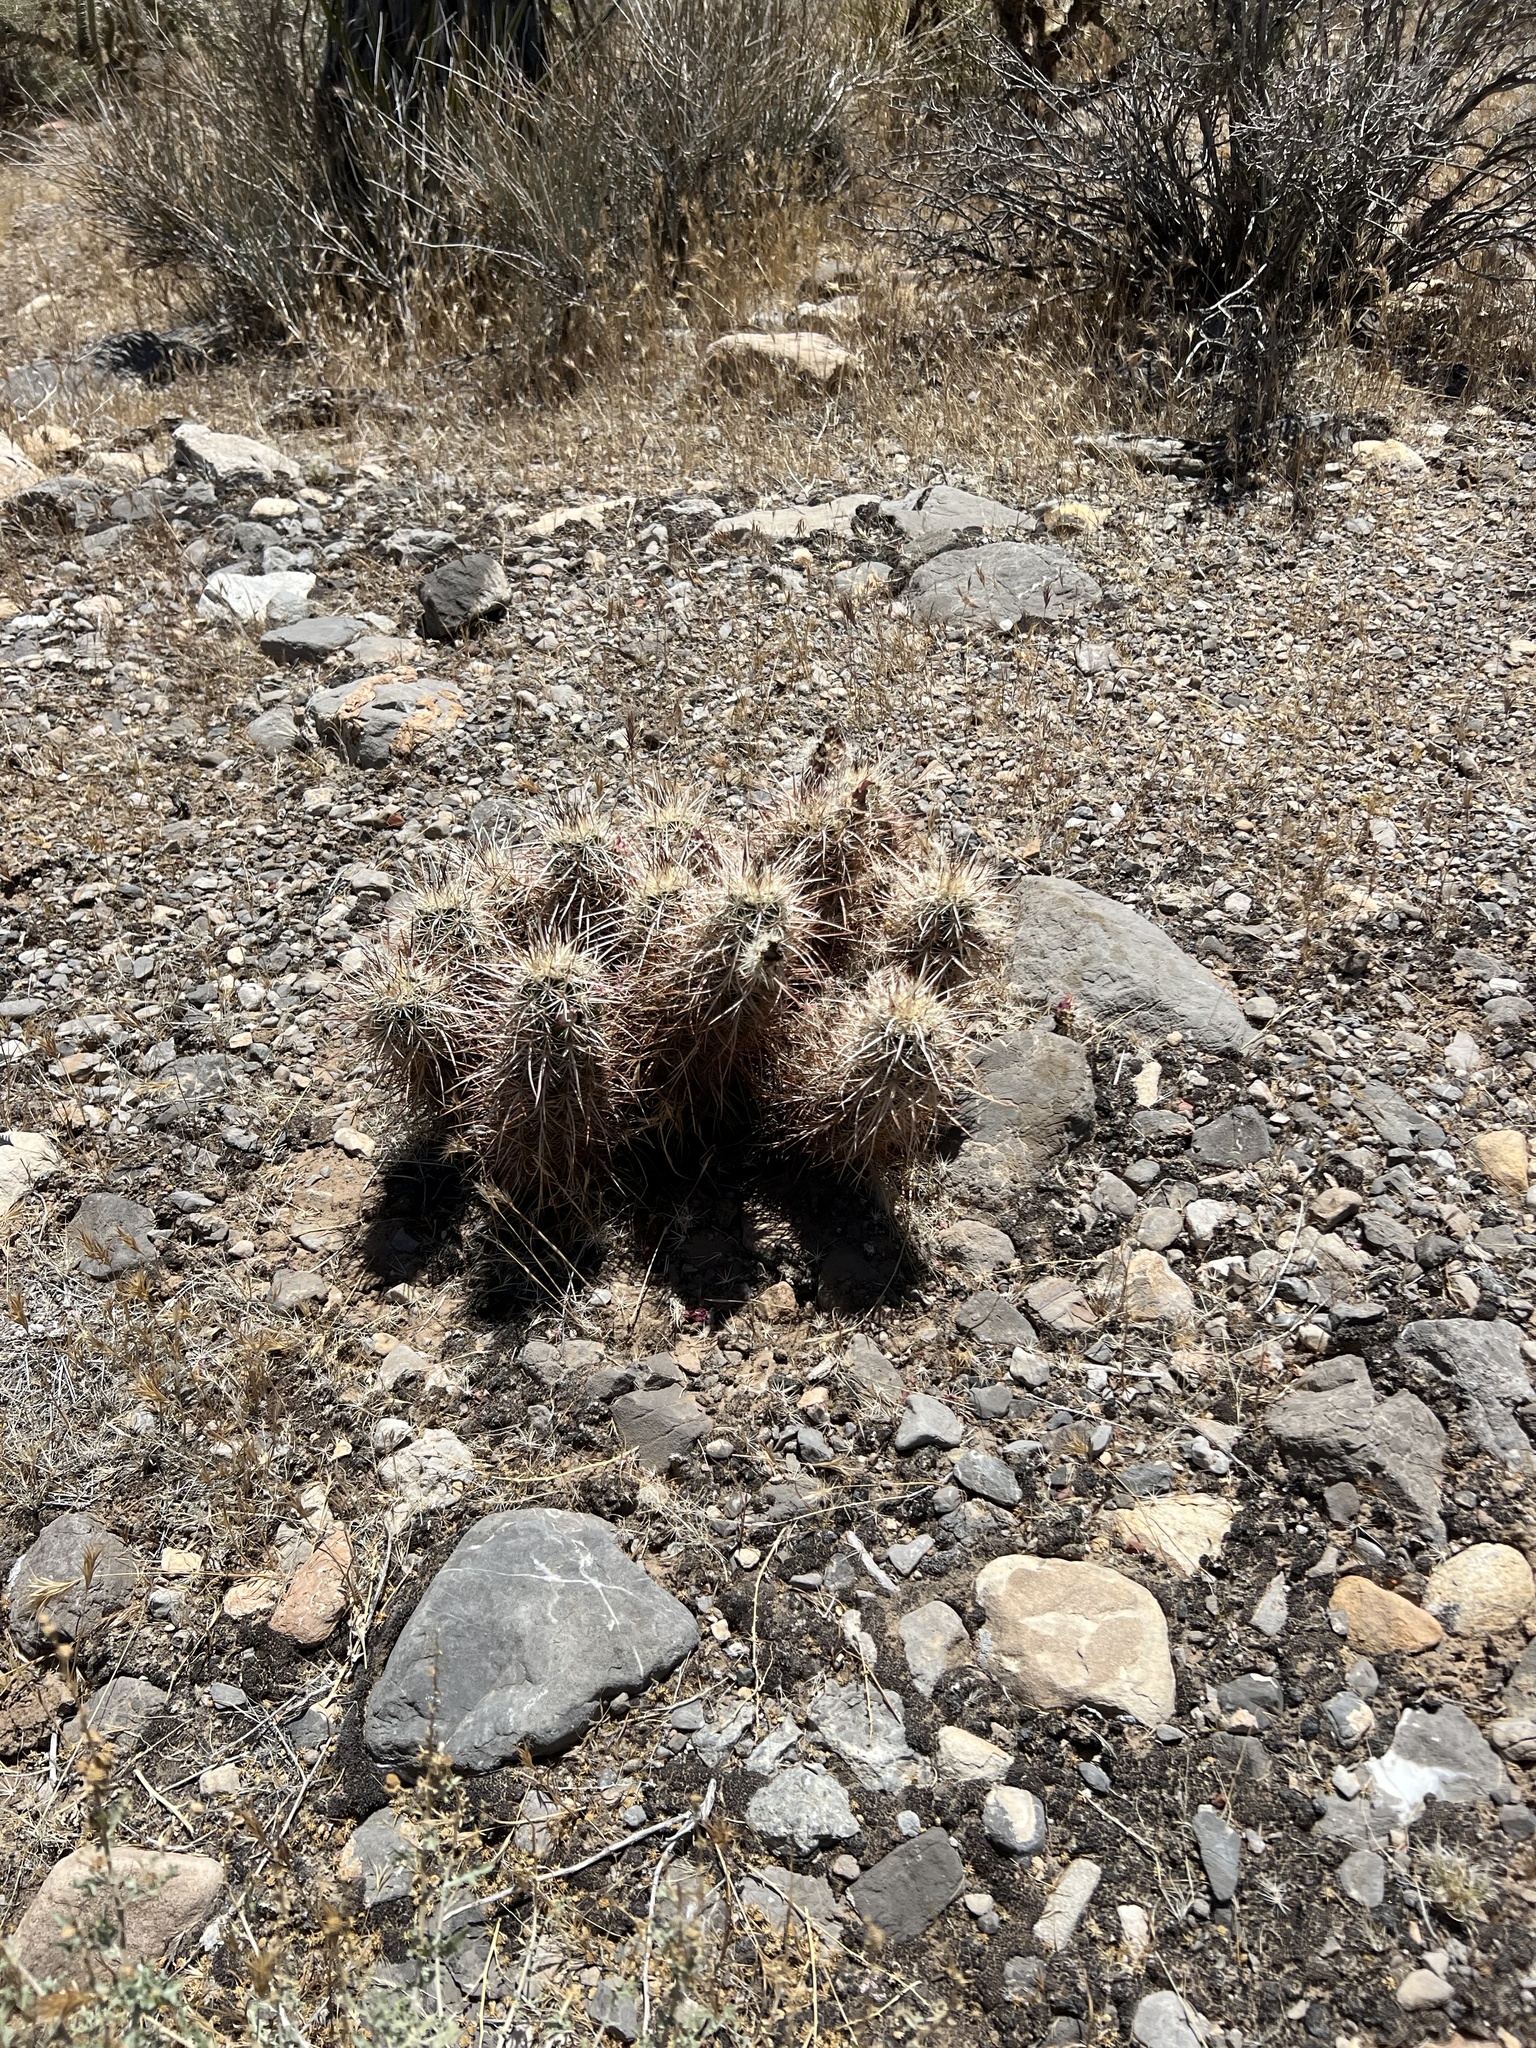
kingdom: Plantae
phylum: Tracheophyta
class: Magnoliopsida
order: Caryophyllales
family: Cactaceae
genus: Echinocereus
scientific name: Echinocereus engelmannii
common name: Engelmann's hedgehog cactus
